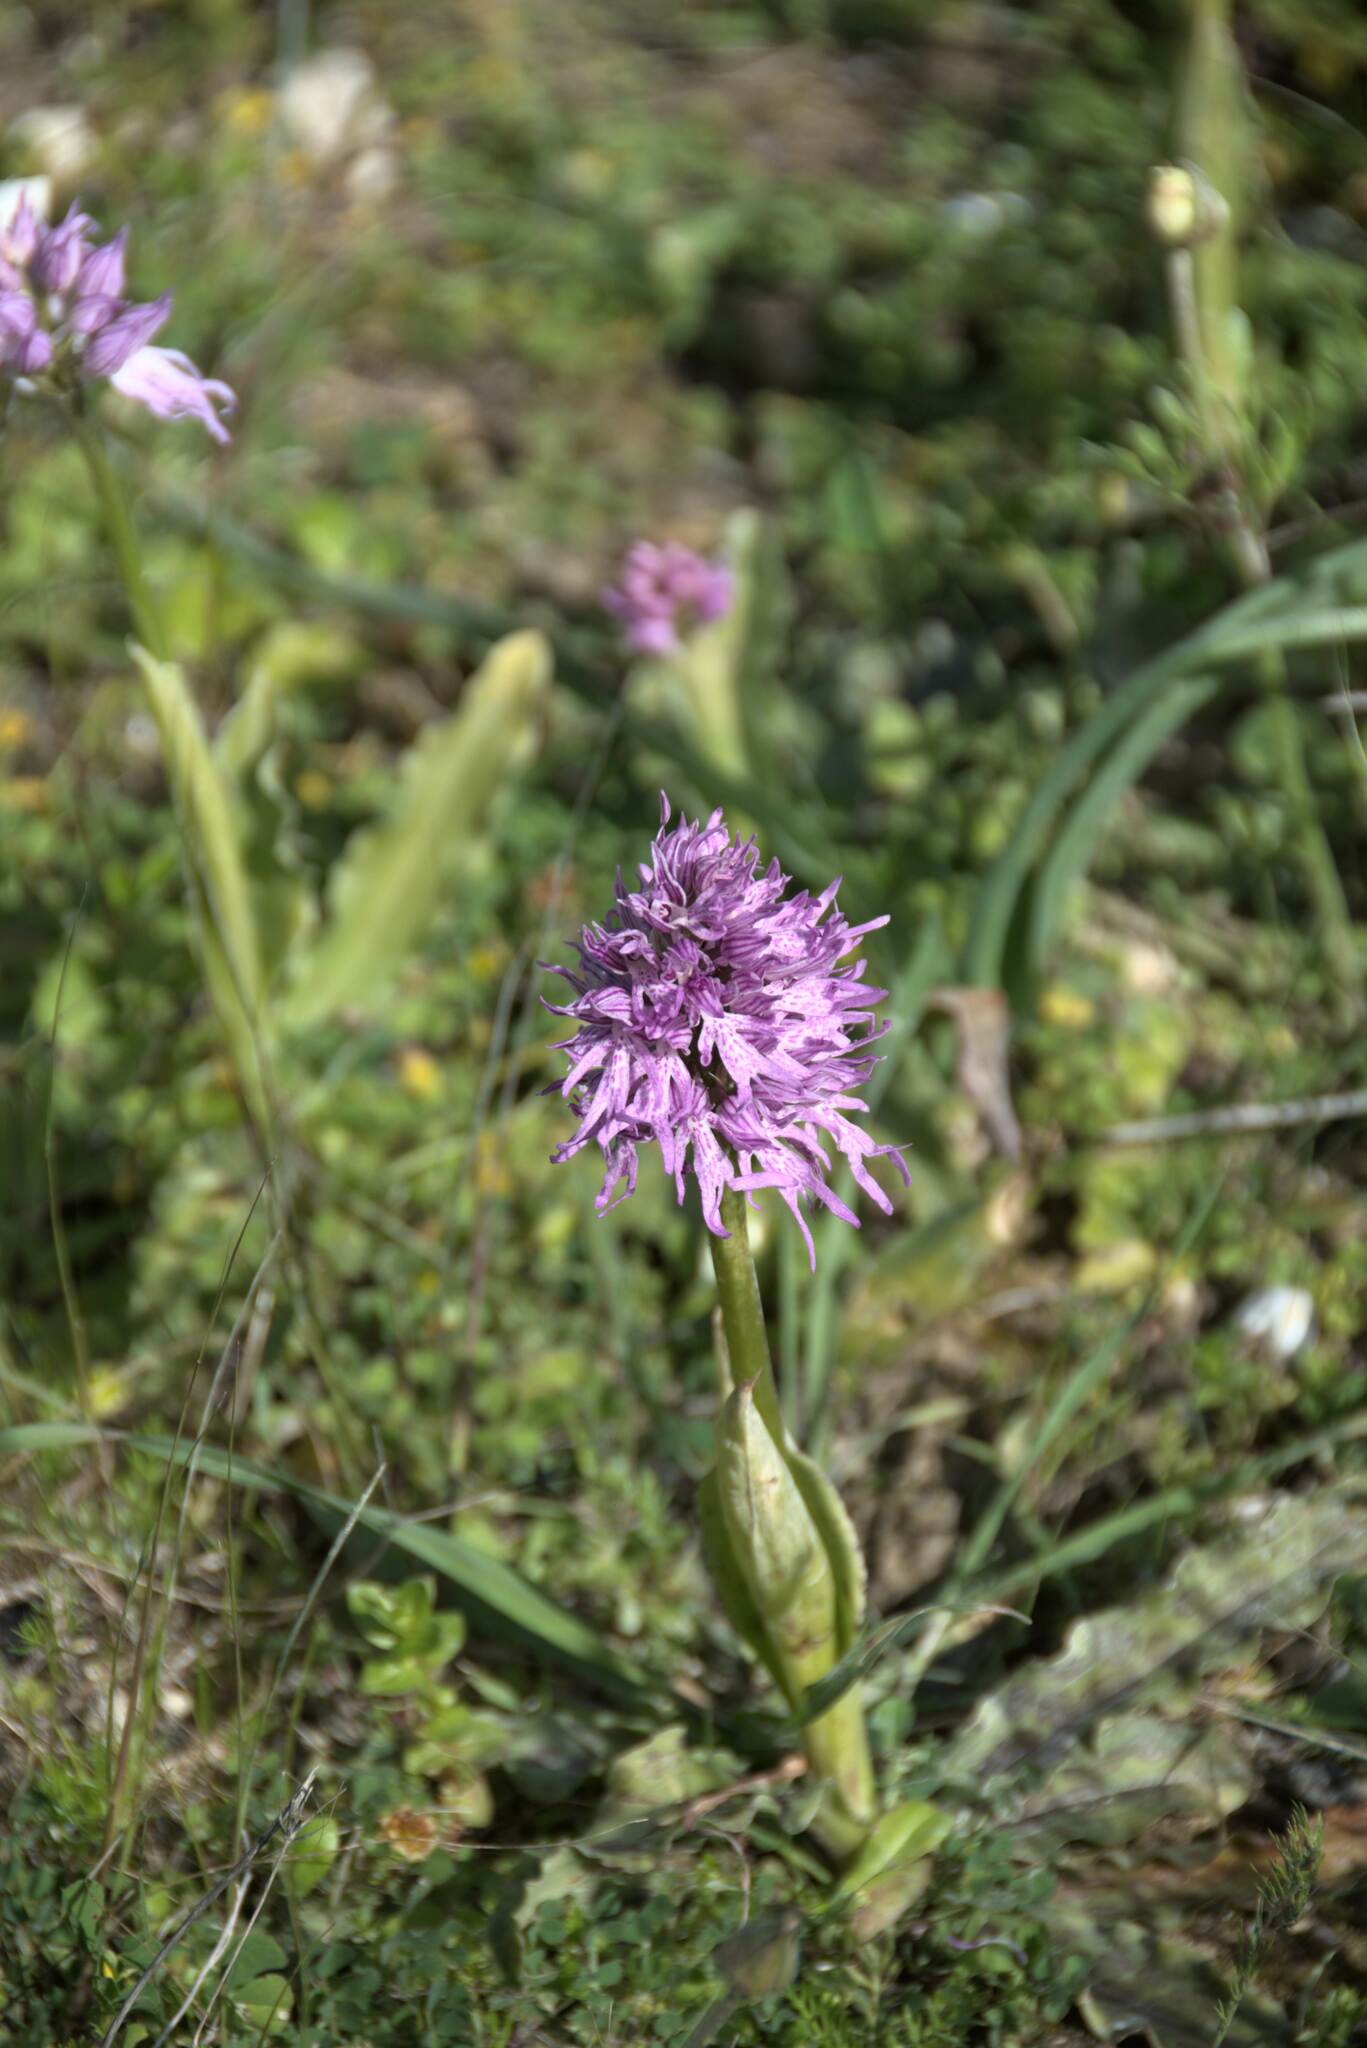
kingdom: Plantae
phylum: Tracheophyta
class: Liliopsida
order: Asparagales
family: Orchidaceae
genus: Orchis
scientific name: Orchis italica
